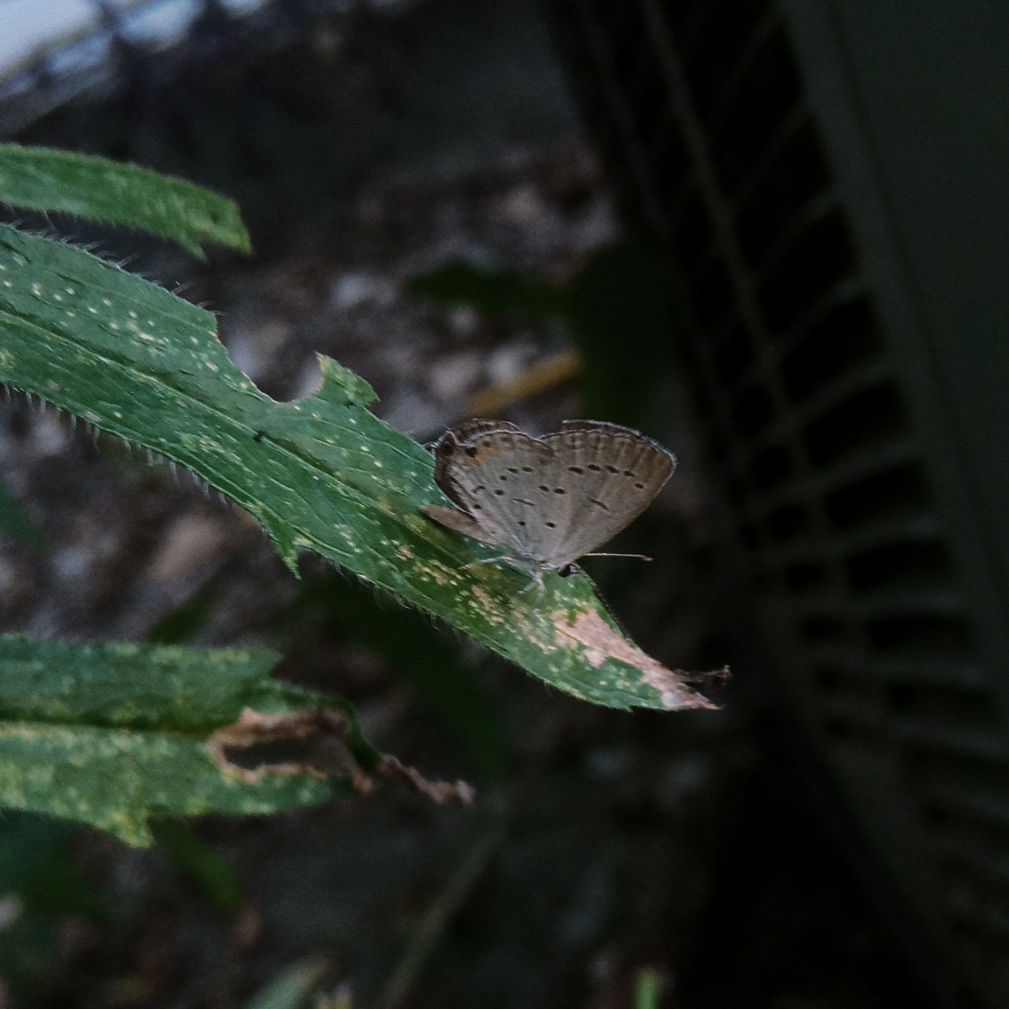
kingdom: Animalia
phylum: Arthropoda
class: Insecta
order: Lepidoptera
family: Lycaenidae
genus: Elkalyce
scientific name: Elkalyce comyntas
